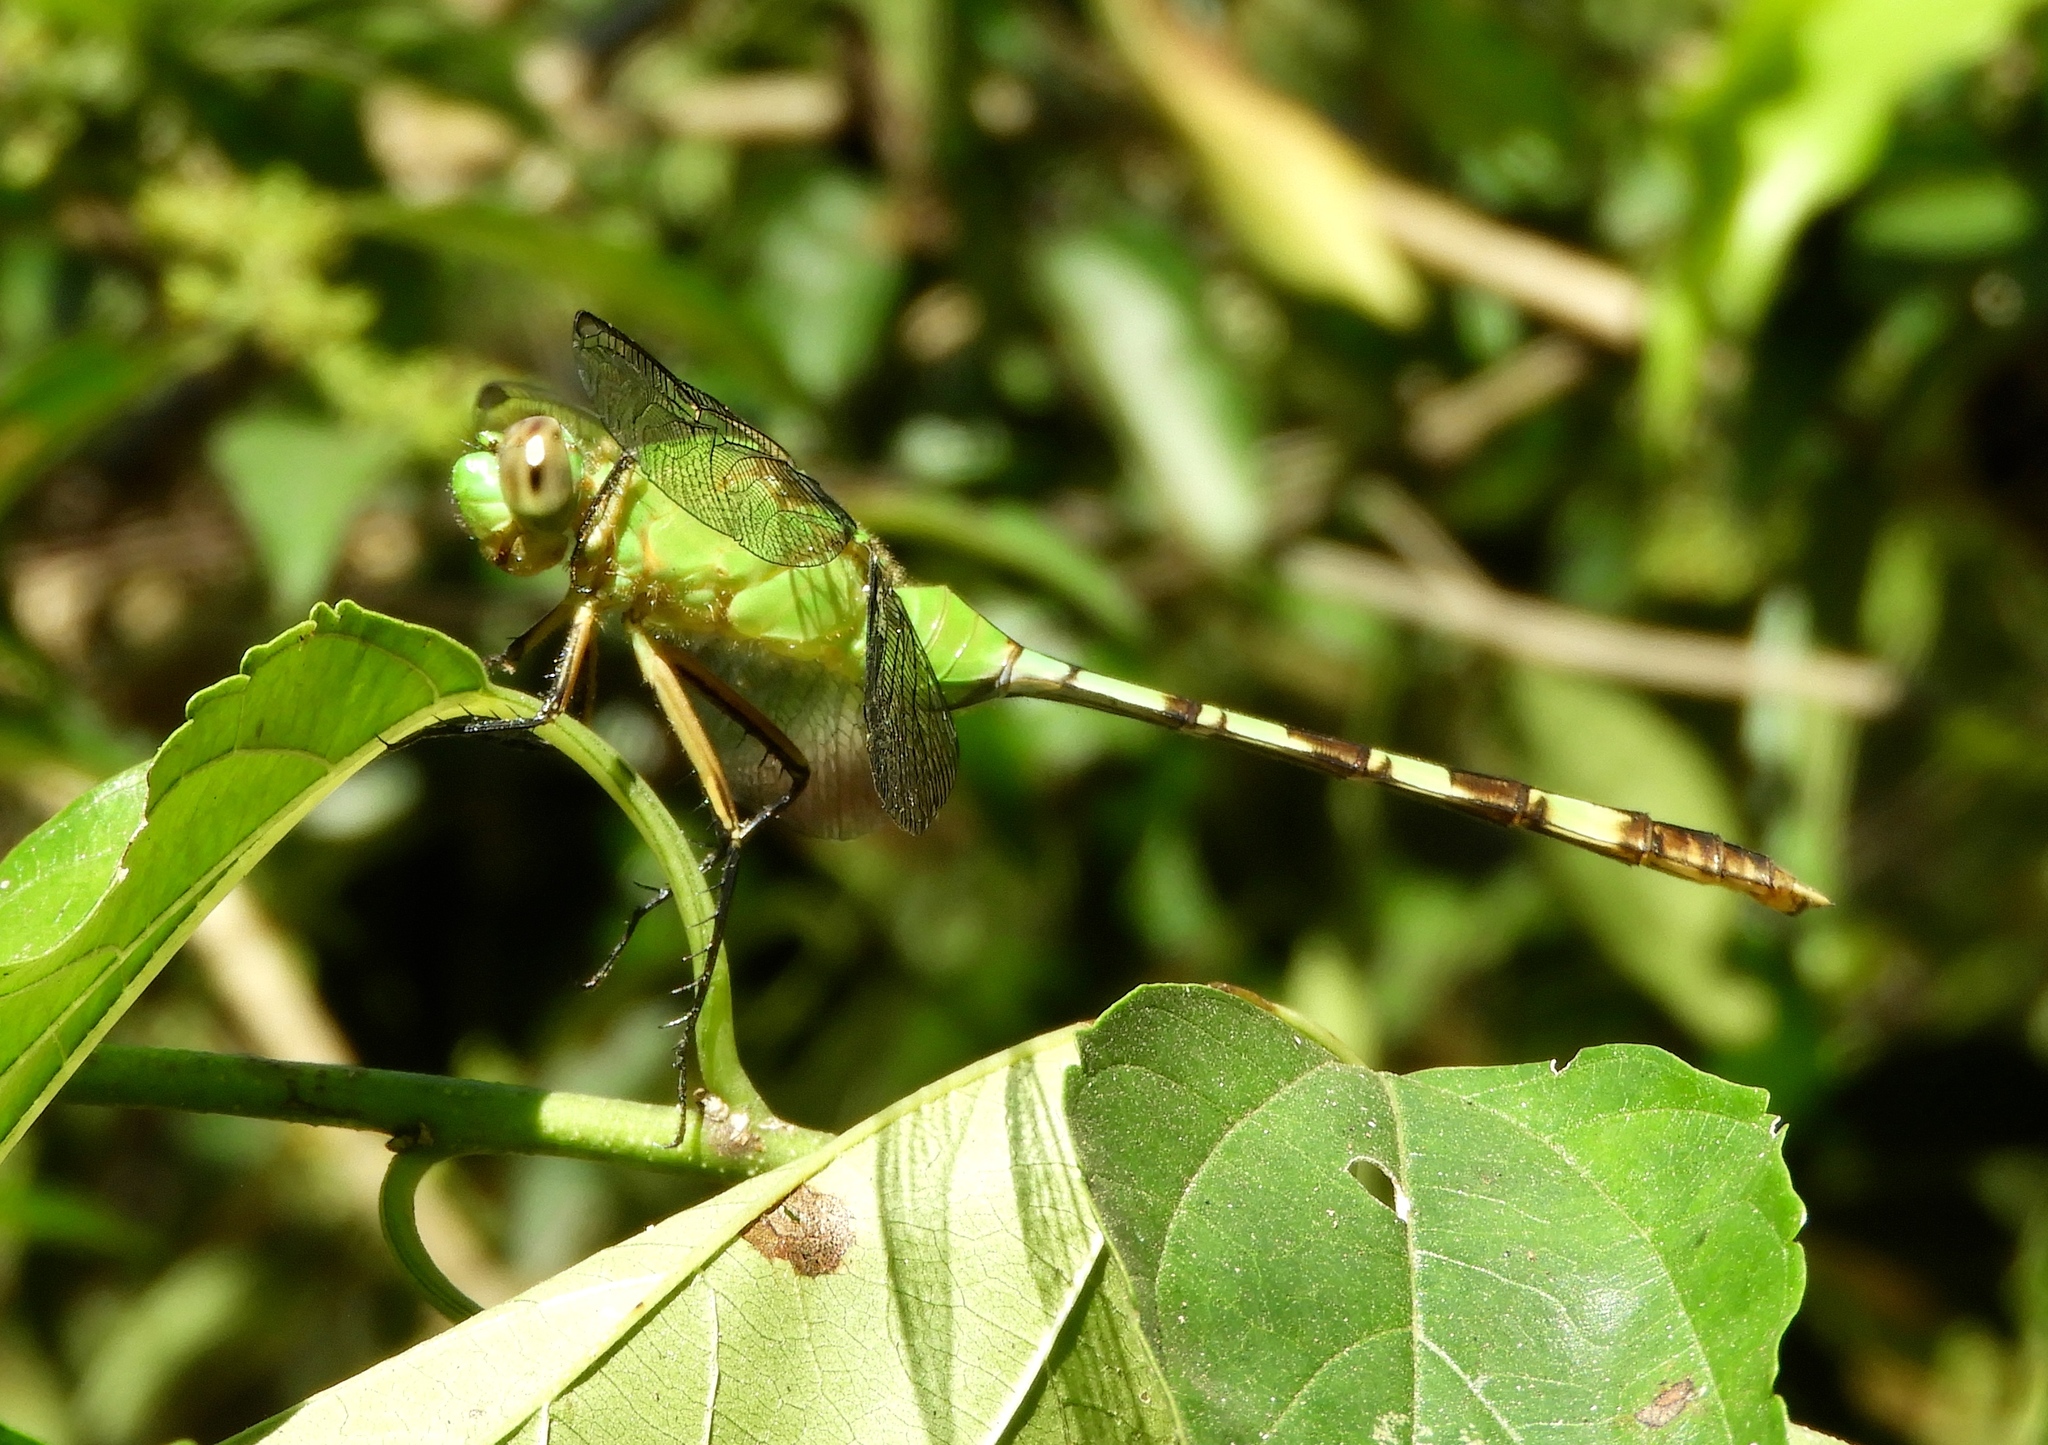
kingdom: Animalia
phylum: Arthropoda
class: Insecta
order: Odonata
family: Libellulidae
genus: Erythemis
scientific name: Erythemis vesiculosa
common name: Great pondhawk
